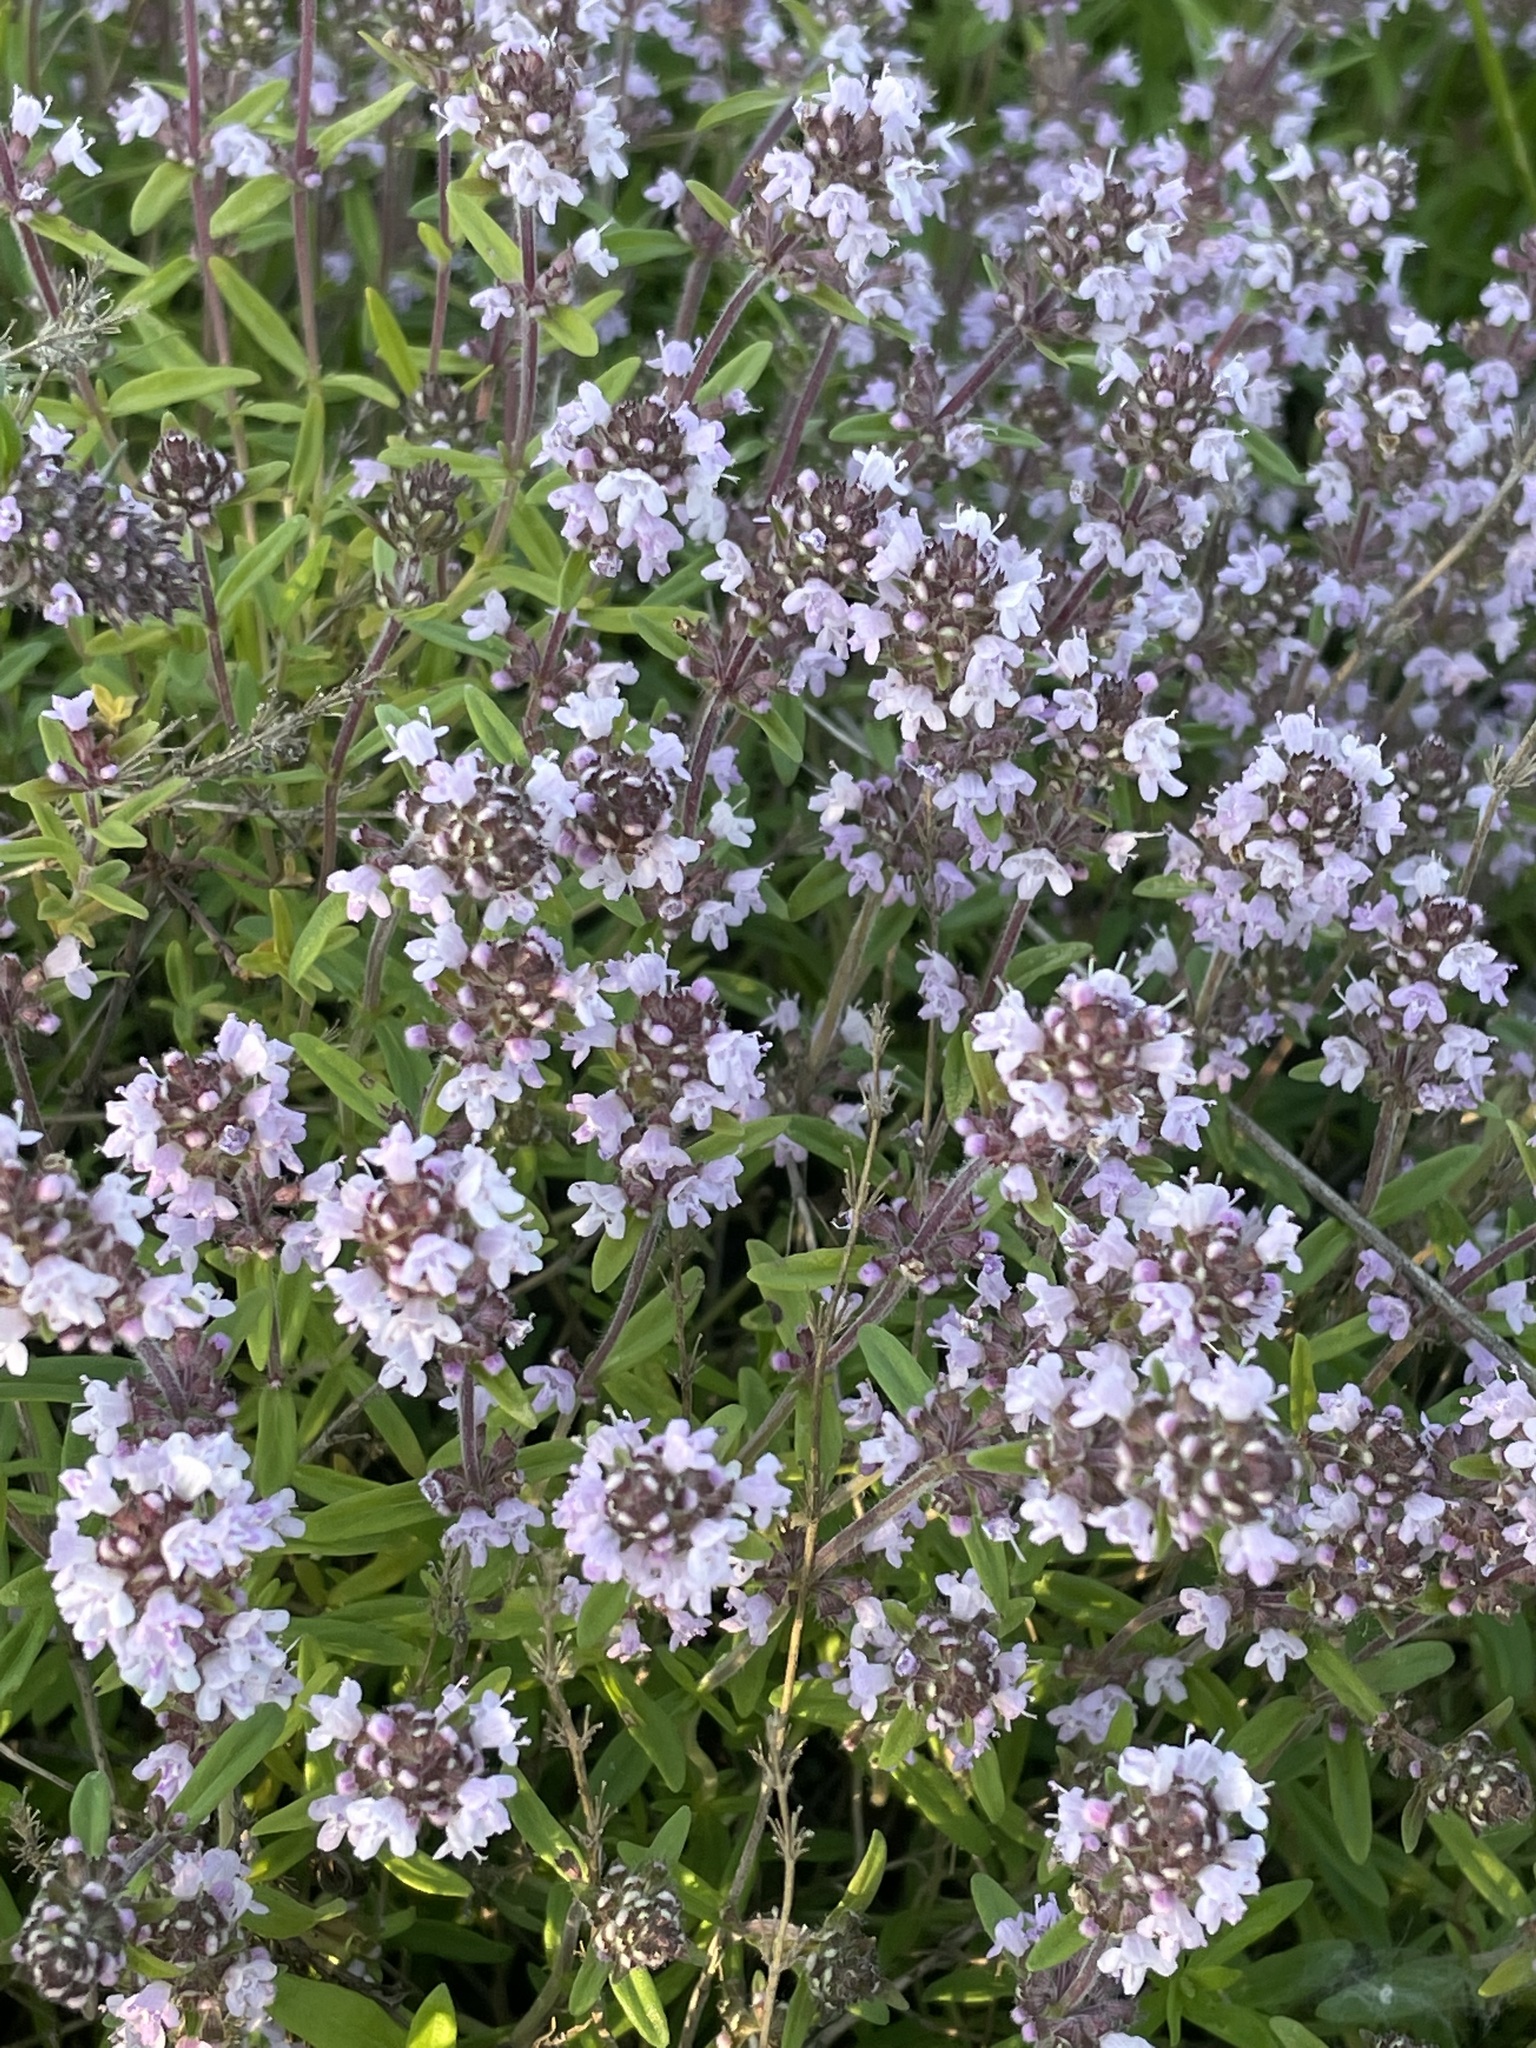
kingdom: Plantae
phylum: Tracheophyta
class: Magnoliopsida
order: Lamiales
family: Lamiaceae
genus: Thymus
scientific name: Thymus pannonicus
